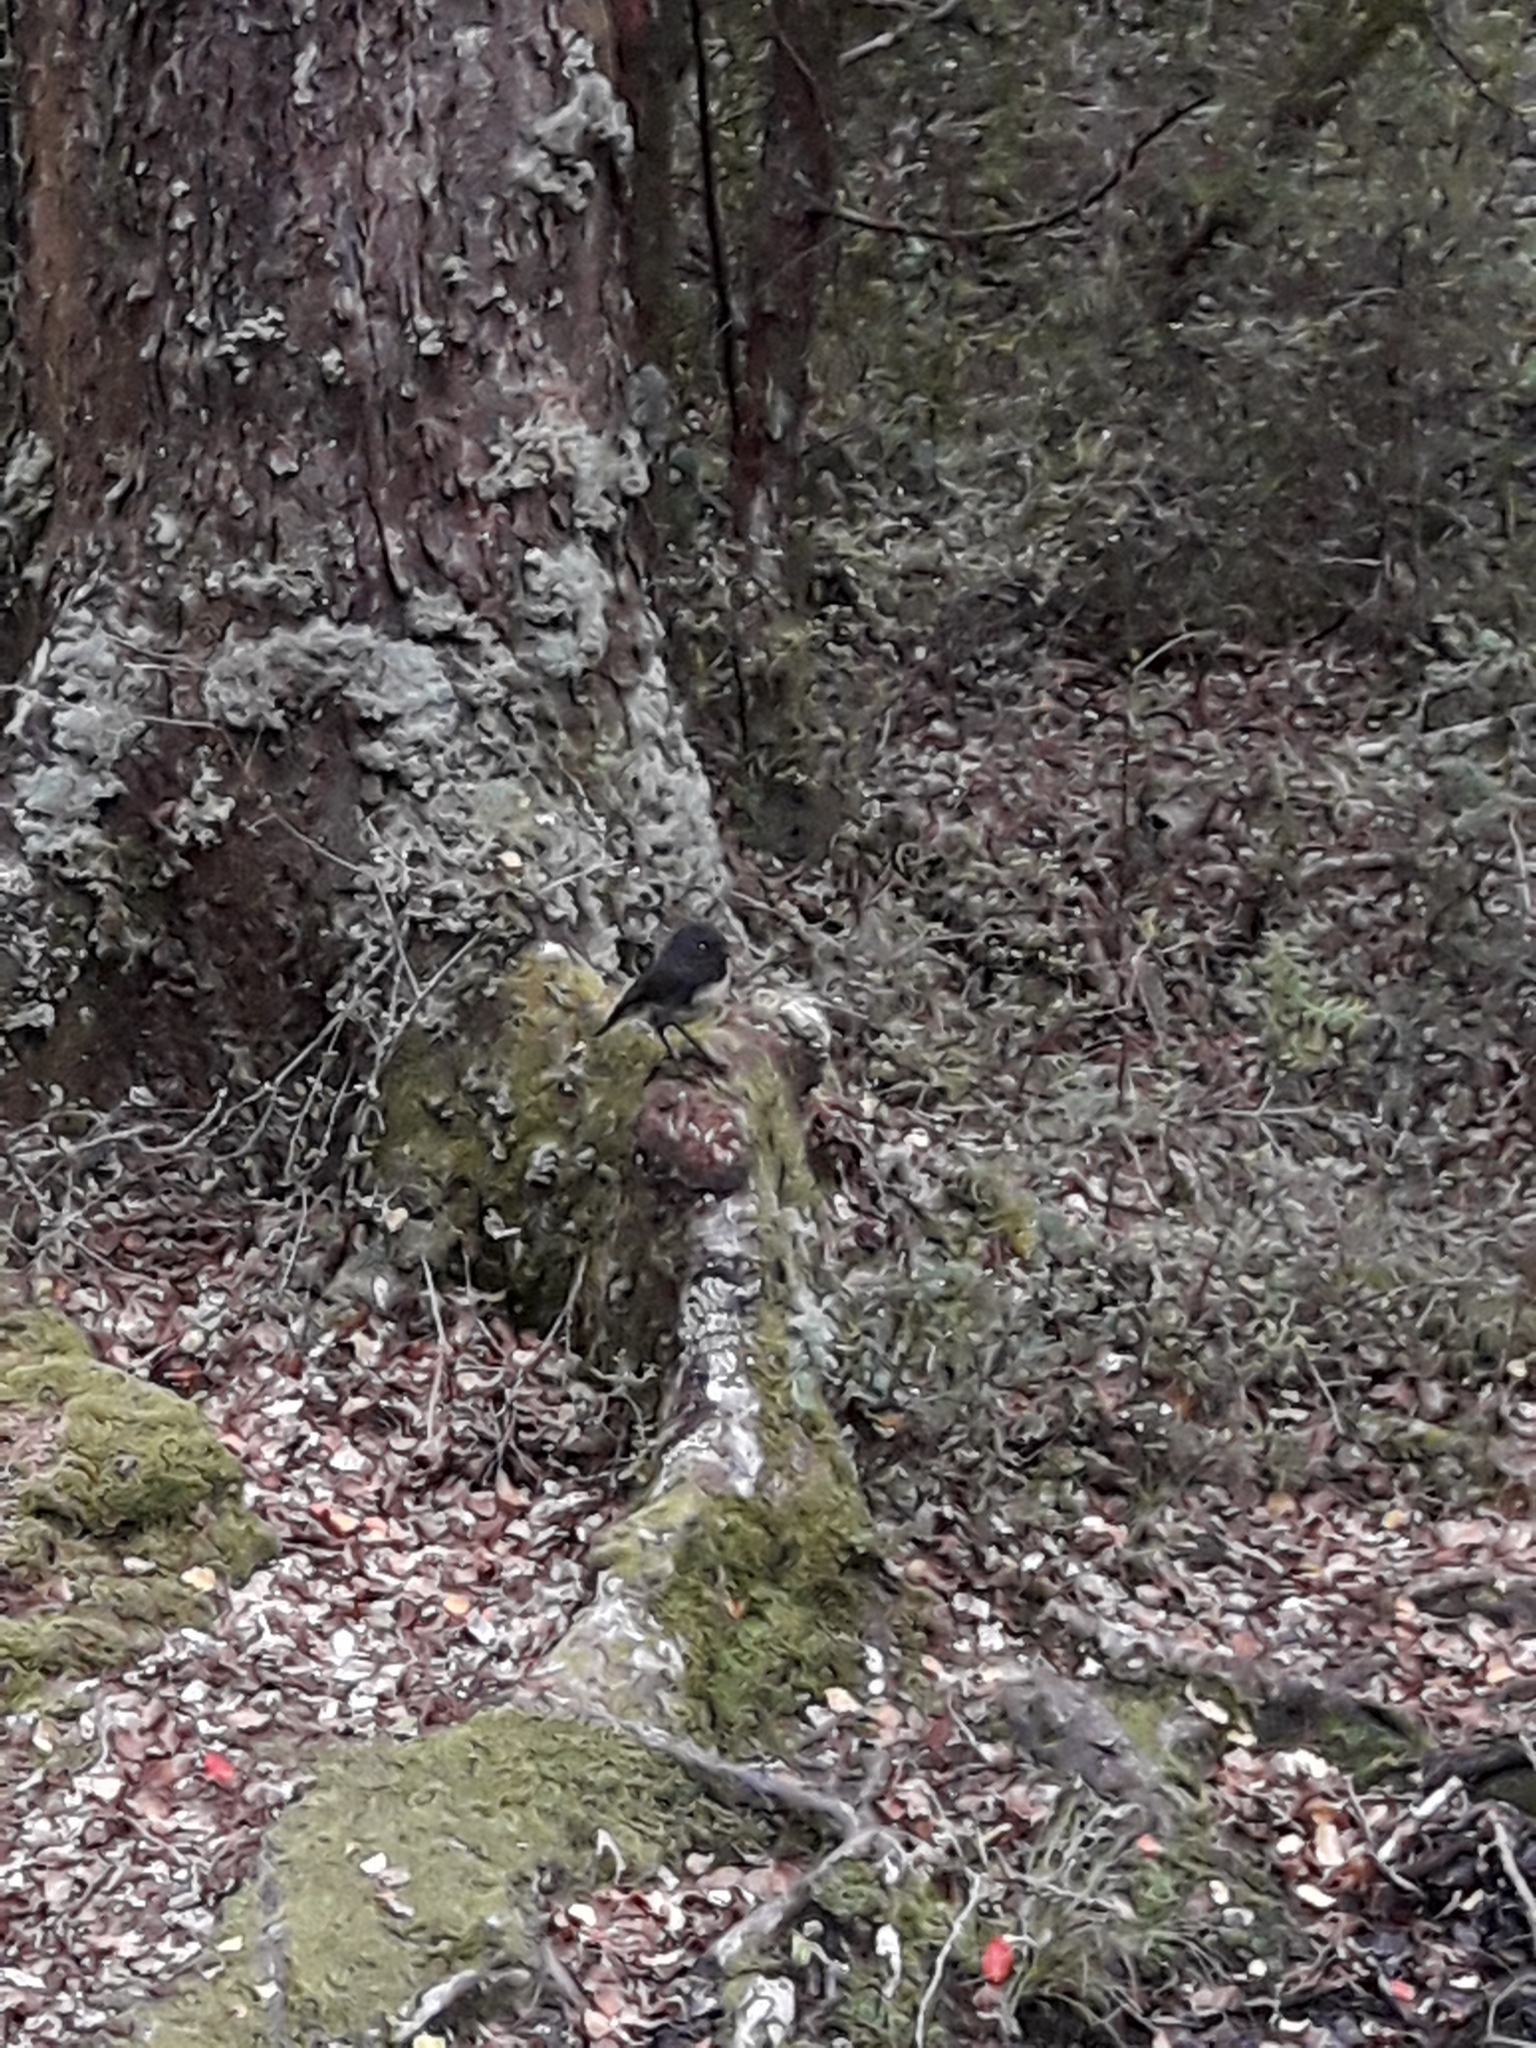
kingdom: Animalia
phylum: Chordata
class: Aves
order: Passeriformes
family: Petroicidae
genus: Petroica
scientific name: Petroica australis
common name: New zealand robin
